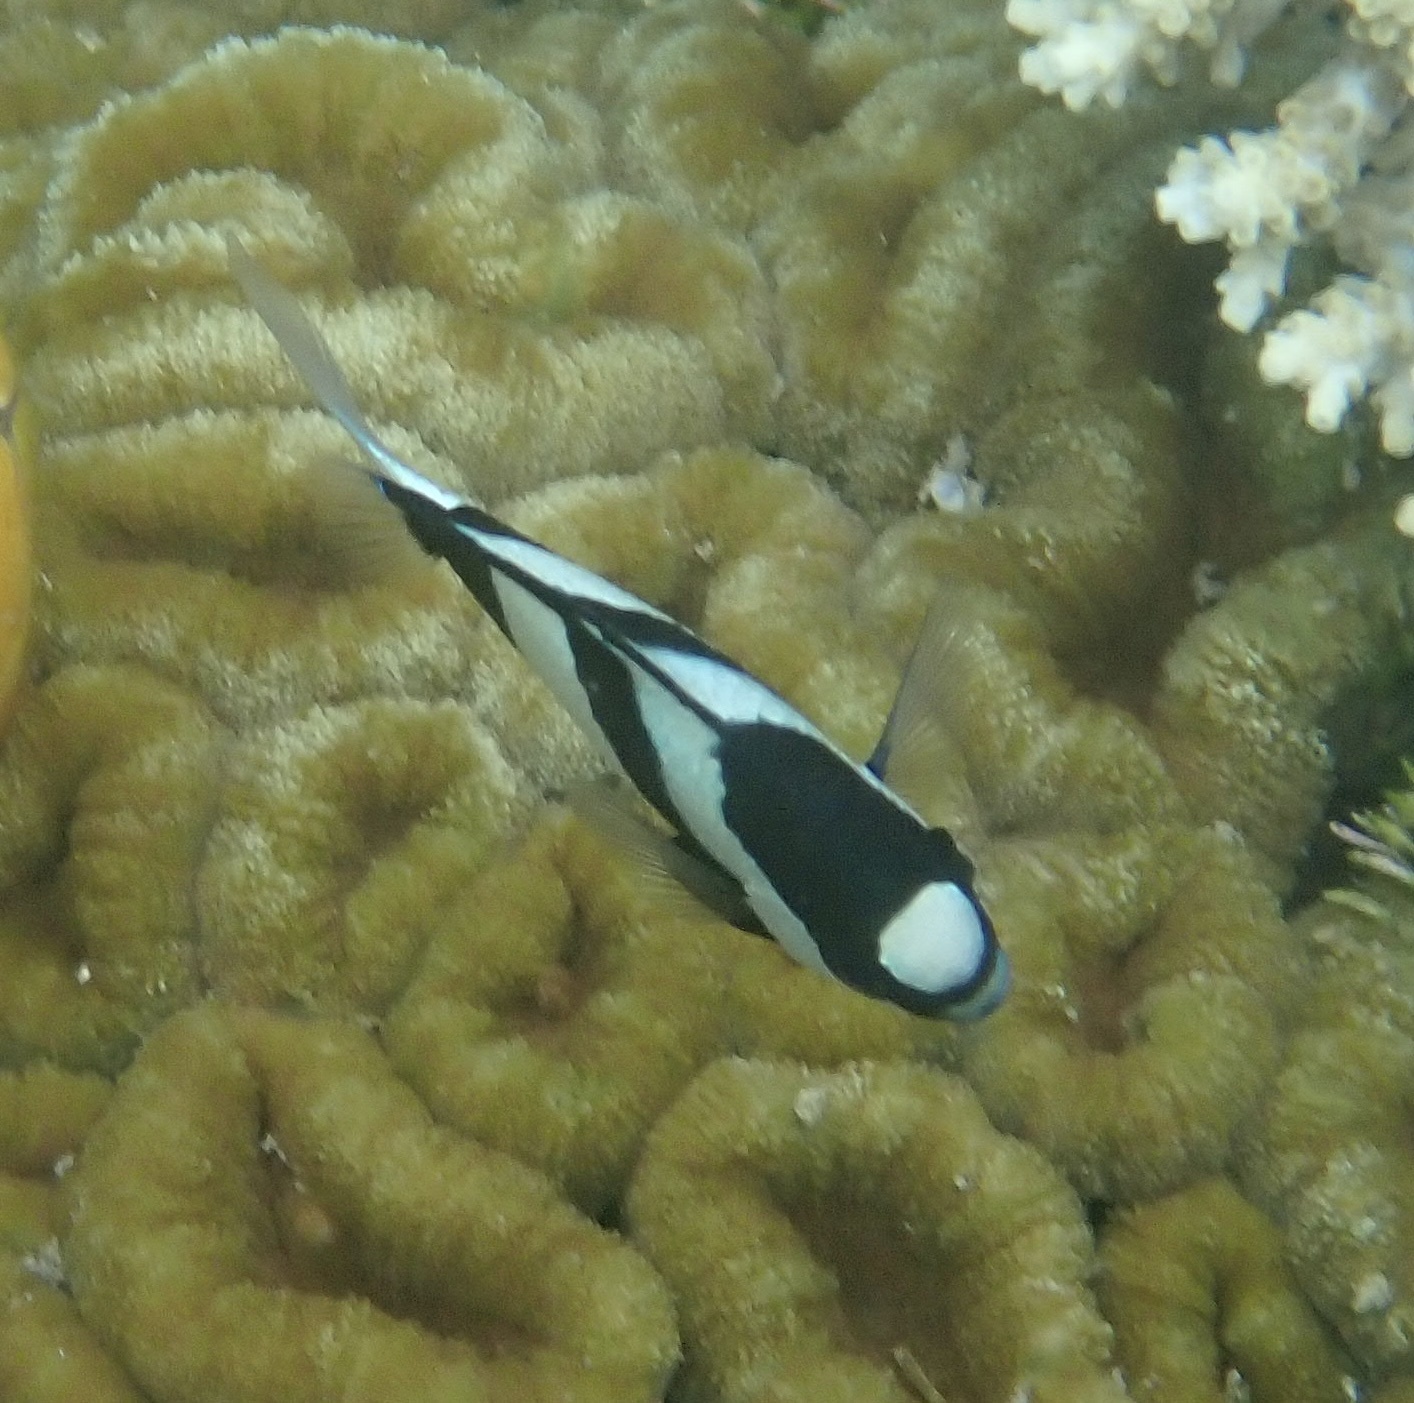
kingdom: Animalia
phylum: Chordata
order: Perciformes
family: Pomacentridae
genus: Dascyllus
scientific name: Dascyllus aruanus
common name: Humbug dascyllus
